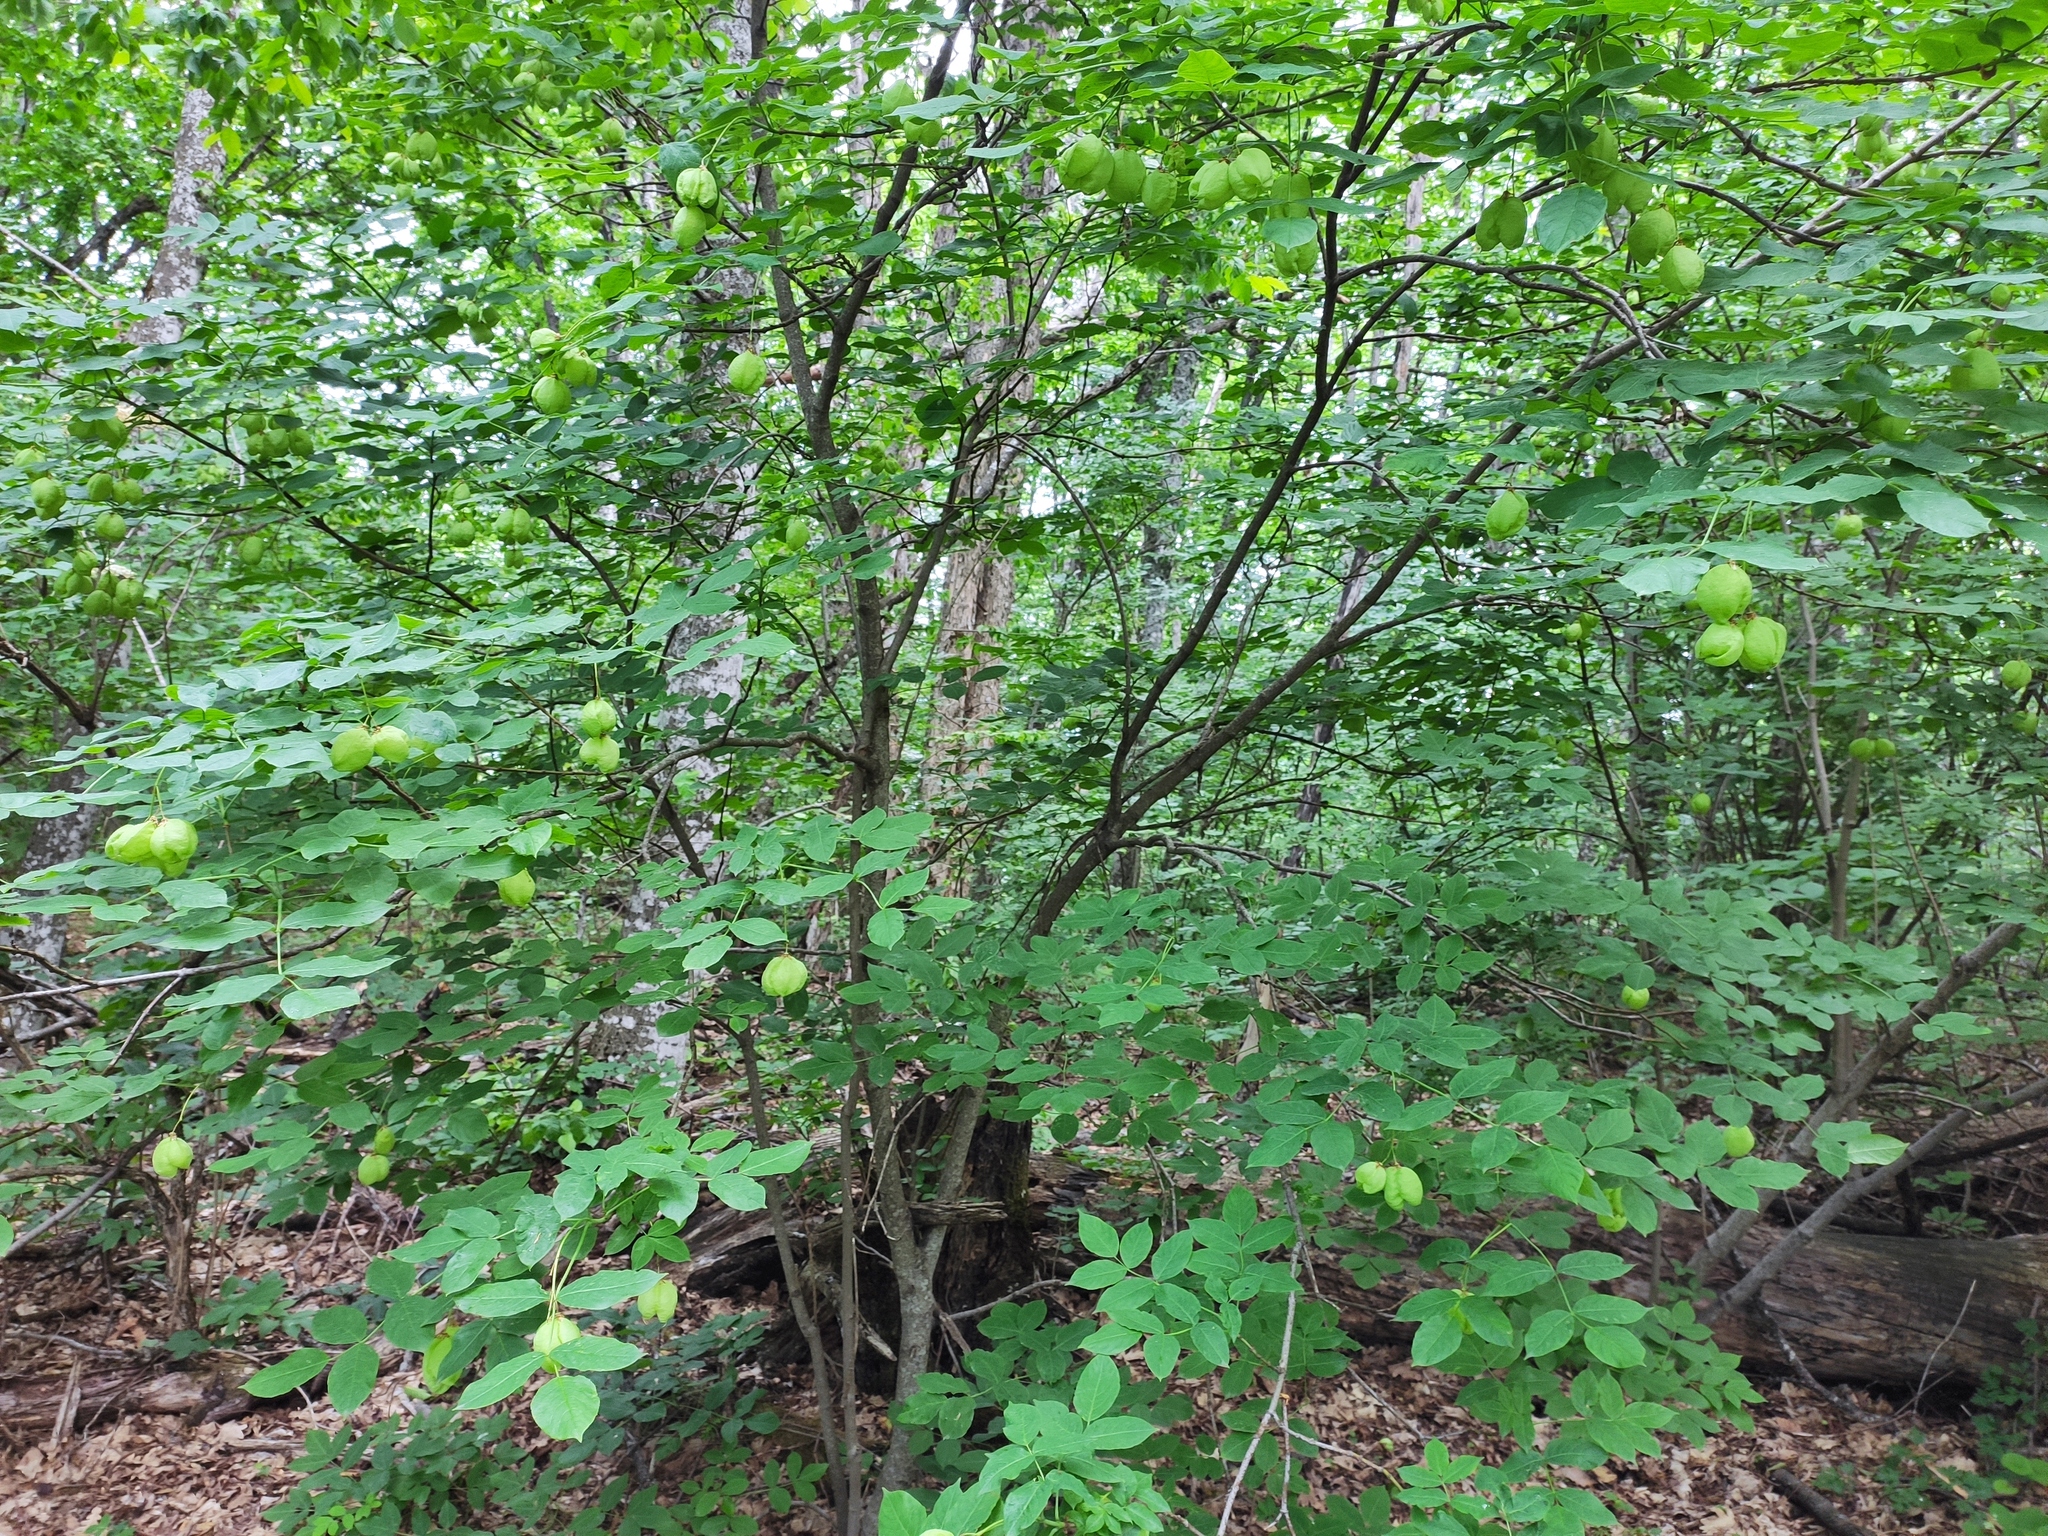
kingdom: Plantae
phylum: Tracheophyta
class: Magnoliopsida
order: Crossosomatales
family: Staphyleaceae
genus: Staphylea
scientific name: Staphylea pinnata
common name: Bladdernut
